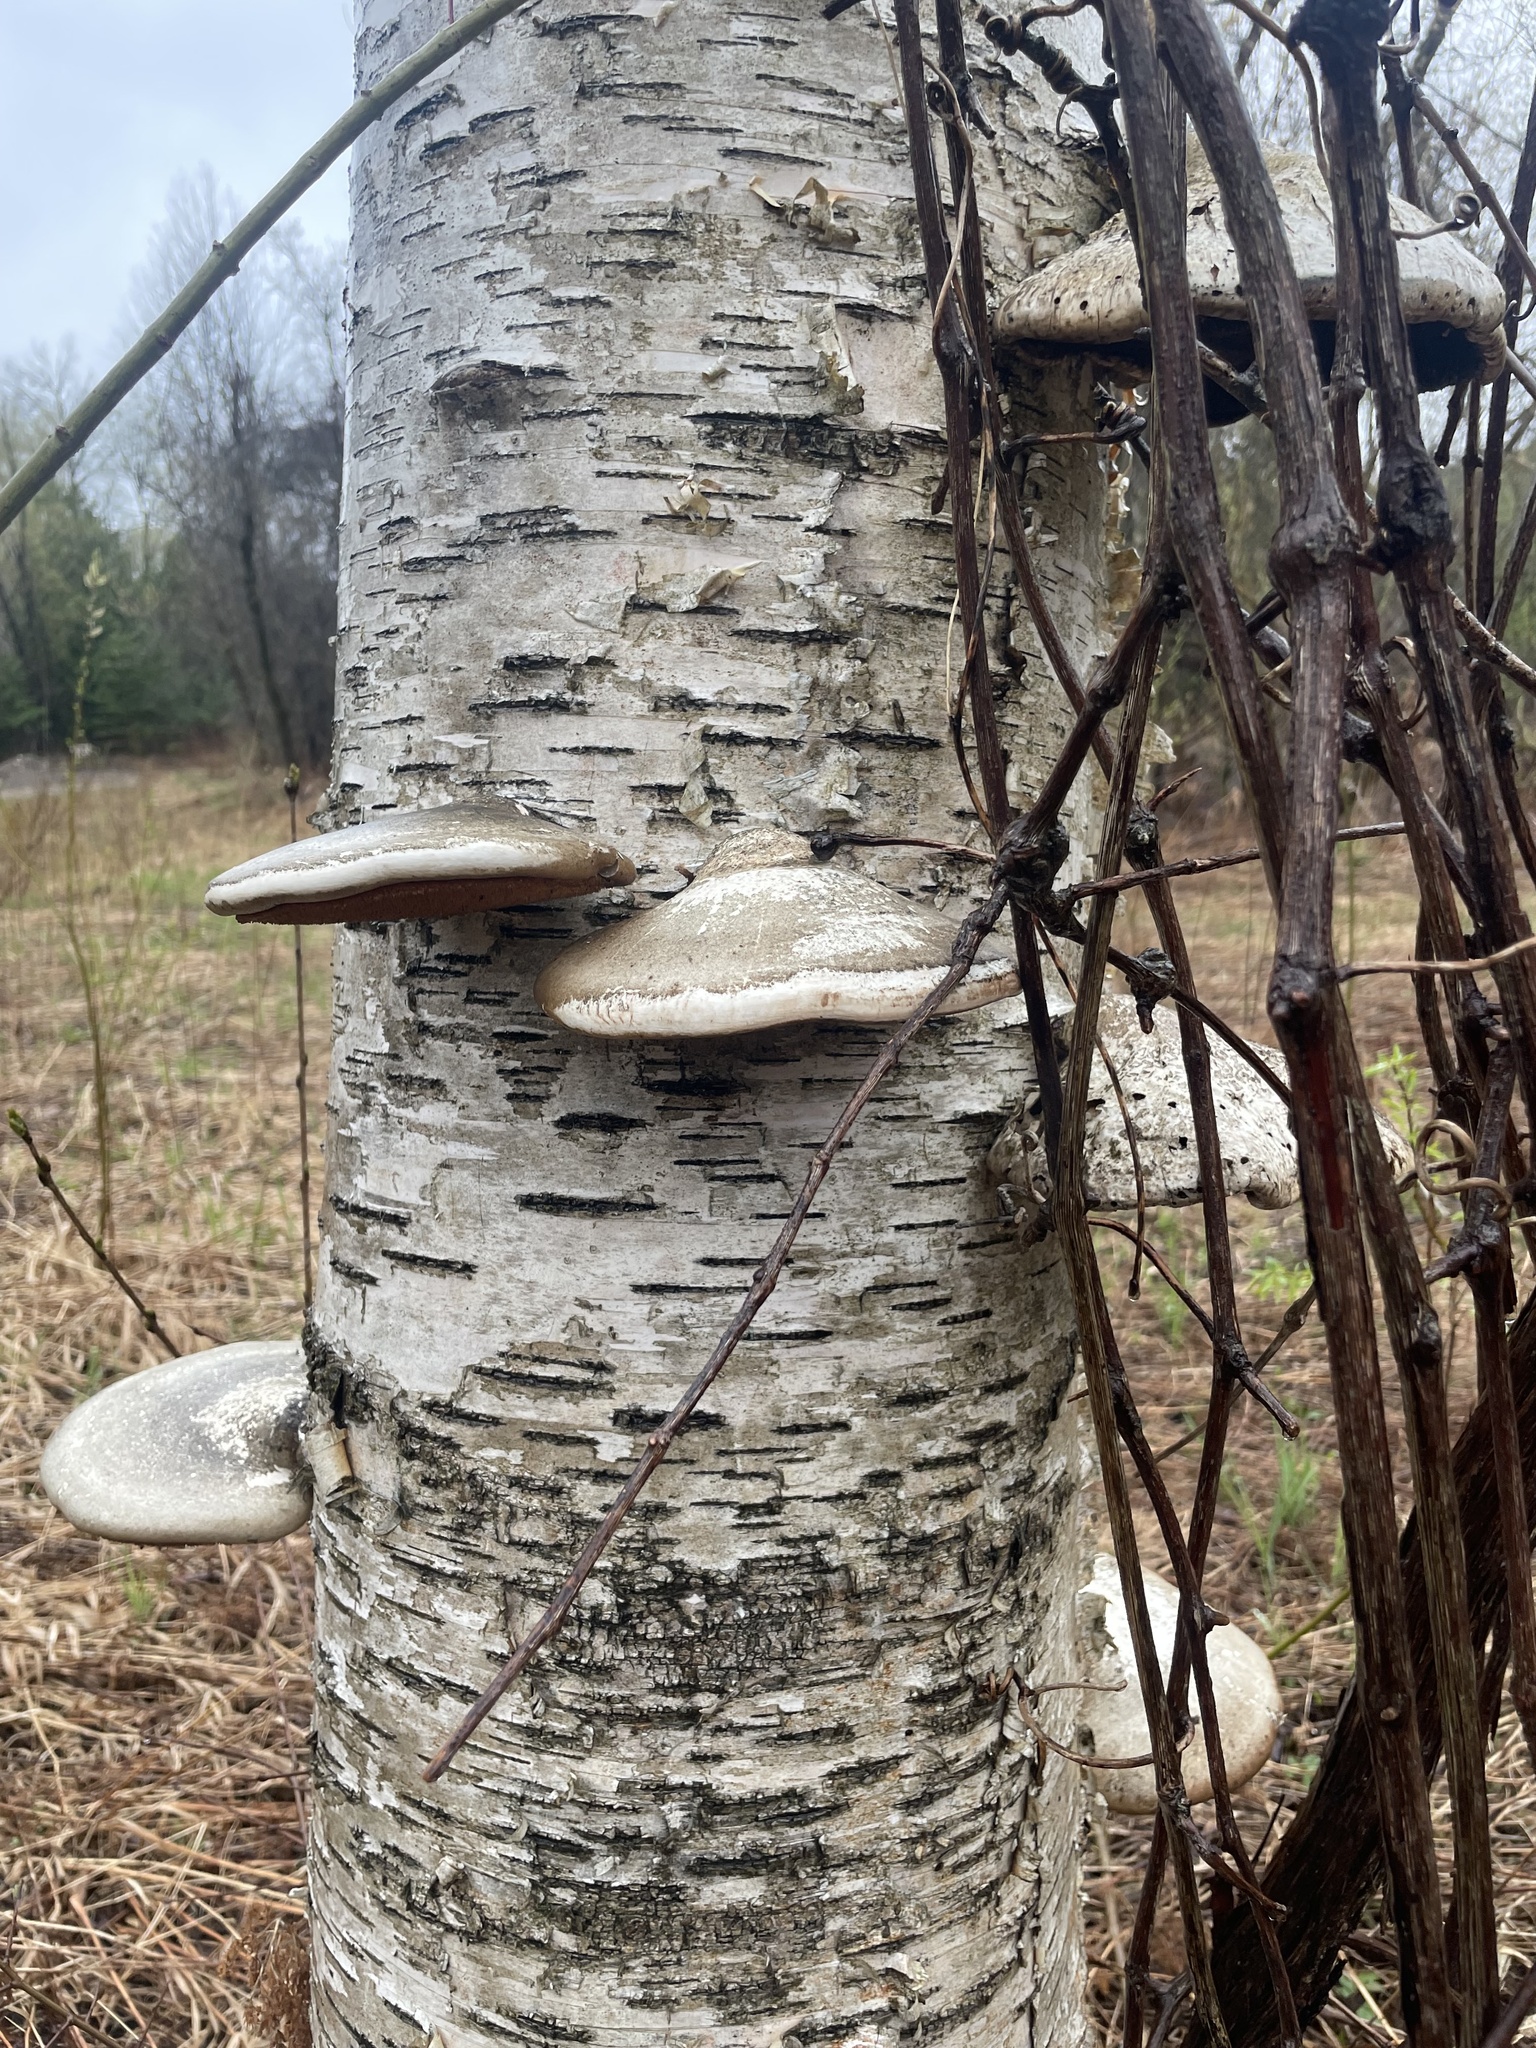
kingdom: Fungi
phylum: Basidiomycota
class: Agaricomycetes
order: Polyporales
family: Fomitopsidaceae
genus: Fomitopsis
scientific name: Fomitopsis betulina
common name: Birch polypore
